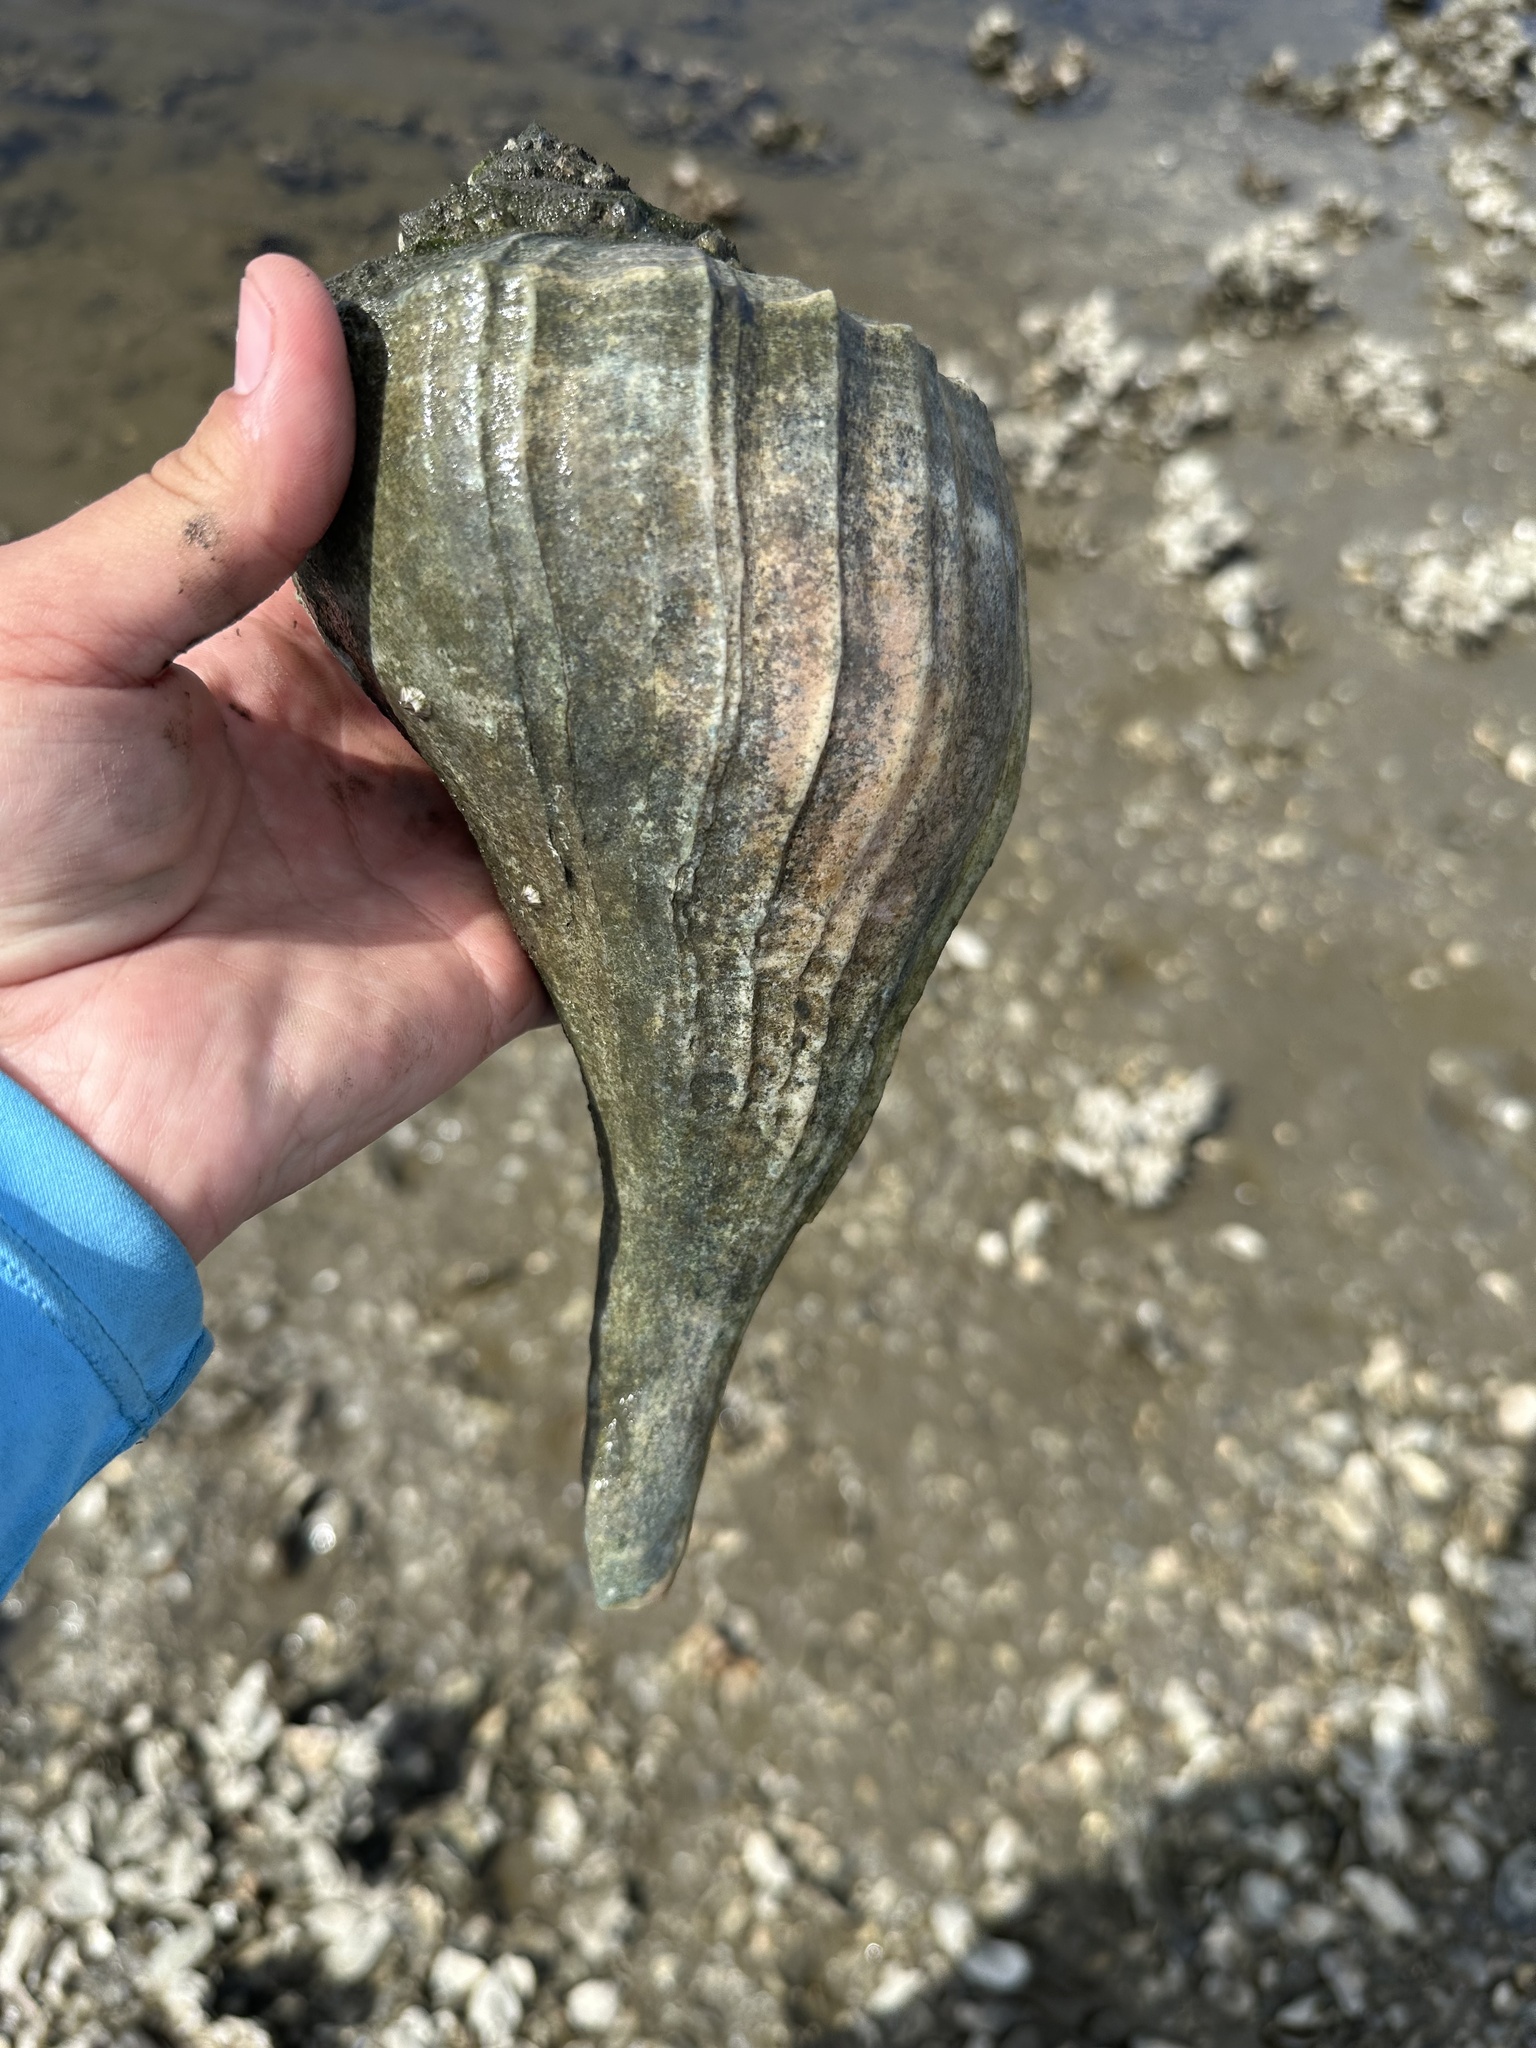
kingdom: Animalia
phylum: Mollusca
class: Gastropoda
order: Neogastropoda
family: Busyconidae
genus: Sinistrofulgur
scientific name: Sinistrofulgur sinistrum
